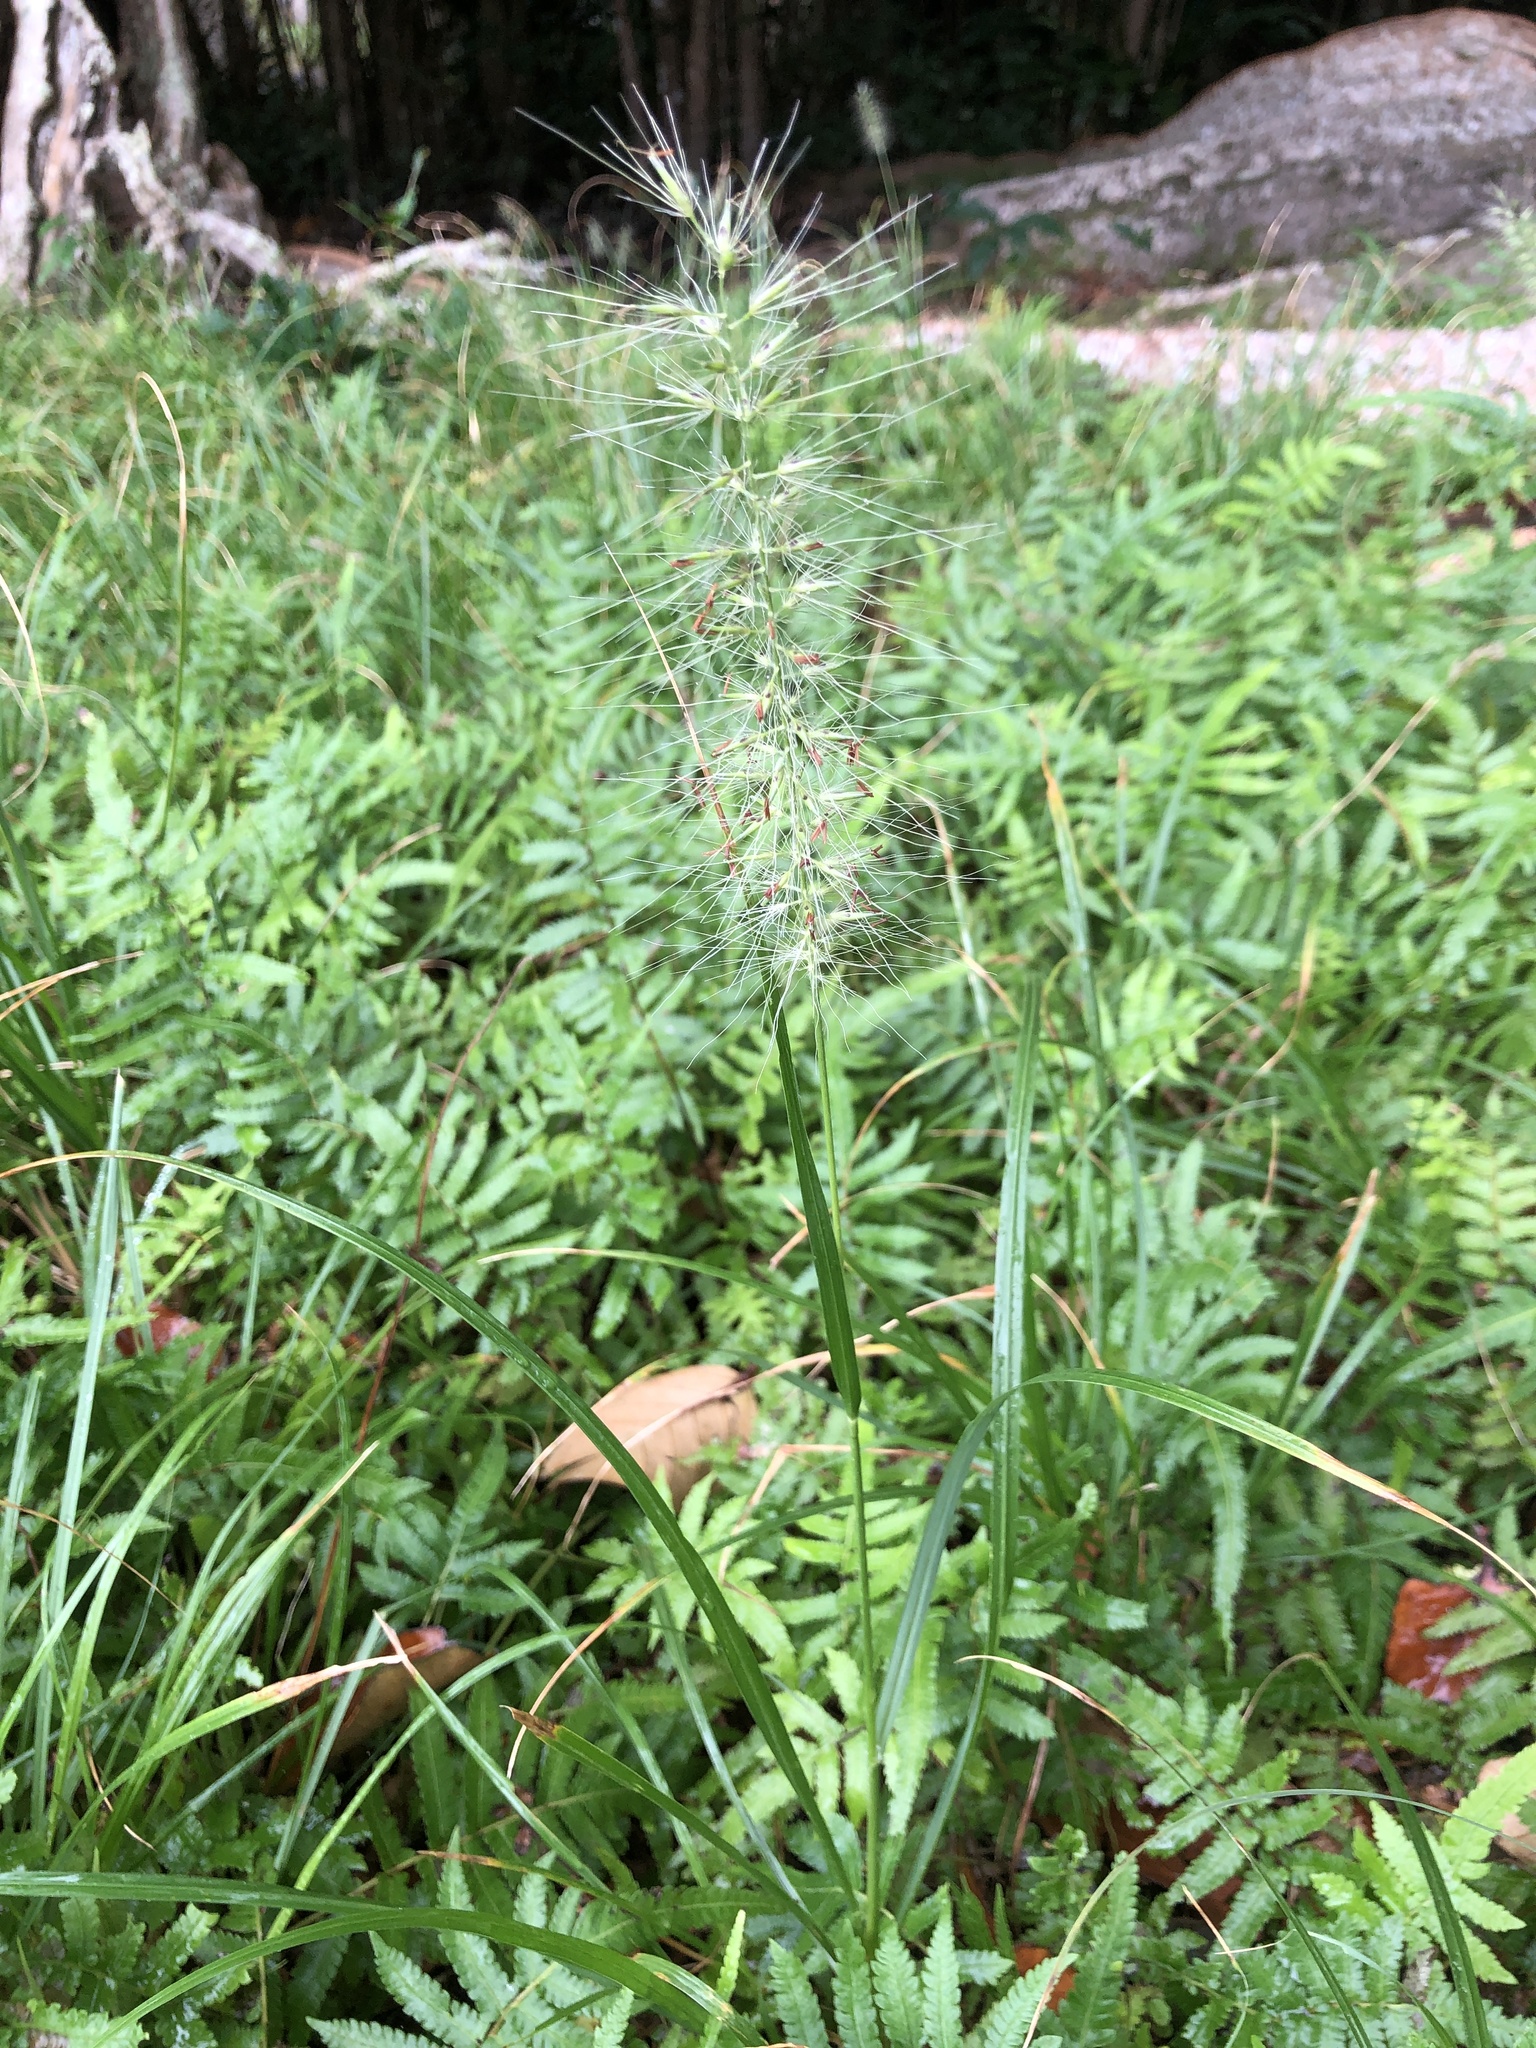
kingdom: Plantae
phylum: Tracheophyta
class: Liliopsida
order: Poales
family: Poaceae
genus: Cenchrus
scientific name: Cenchrus alopecuroides
